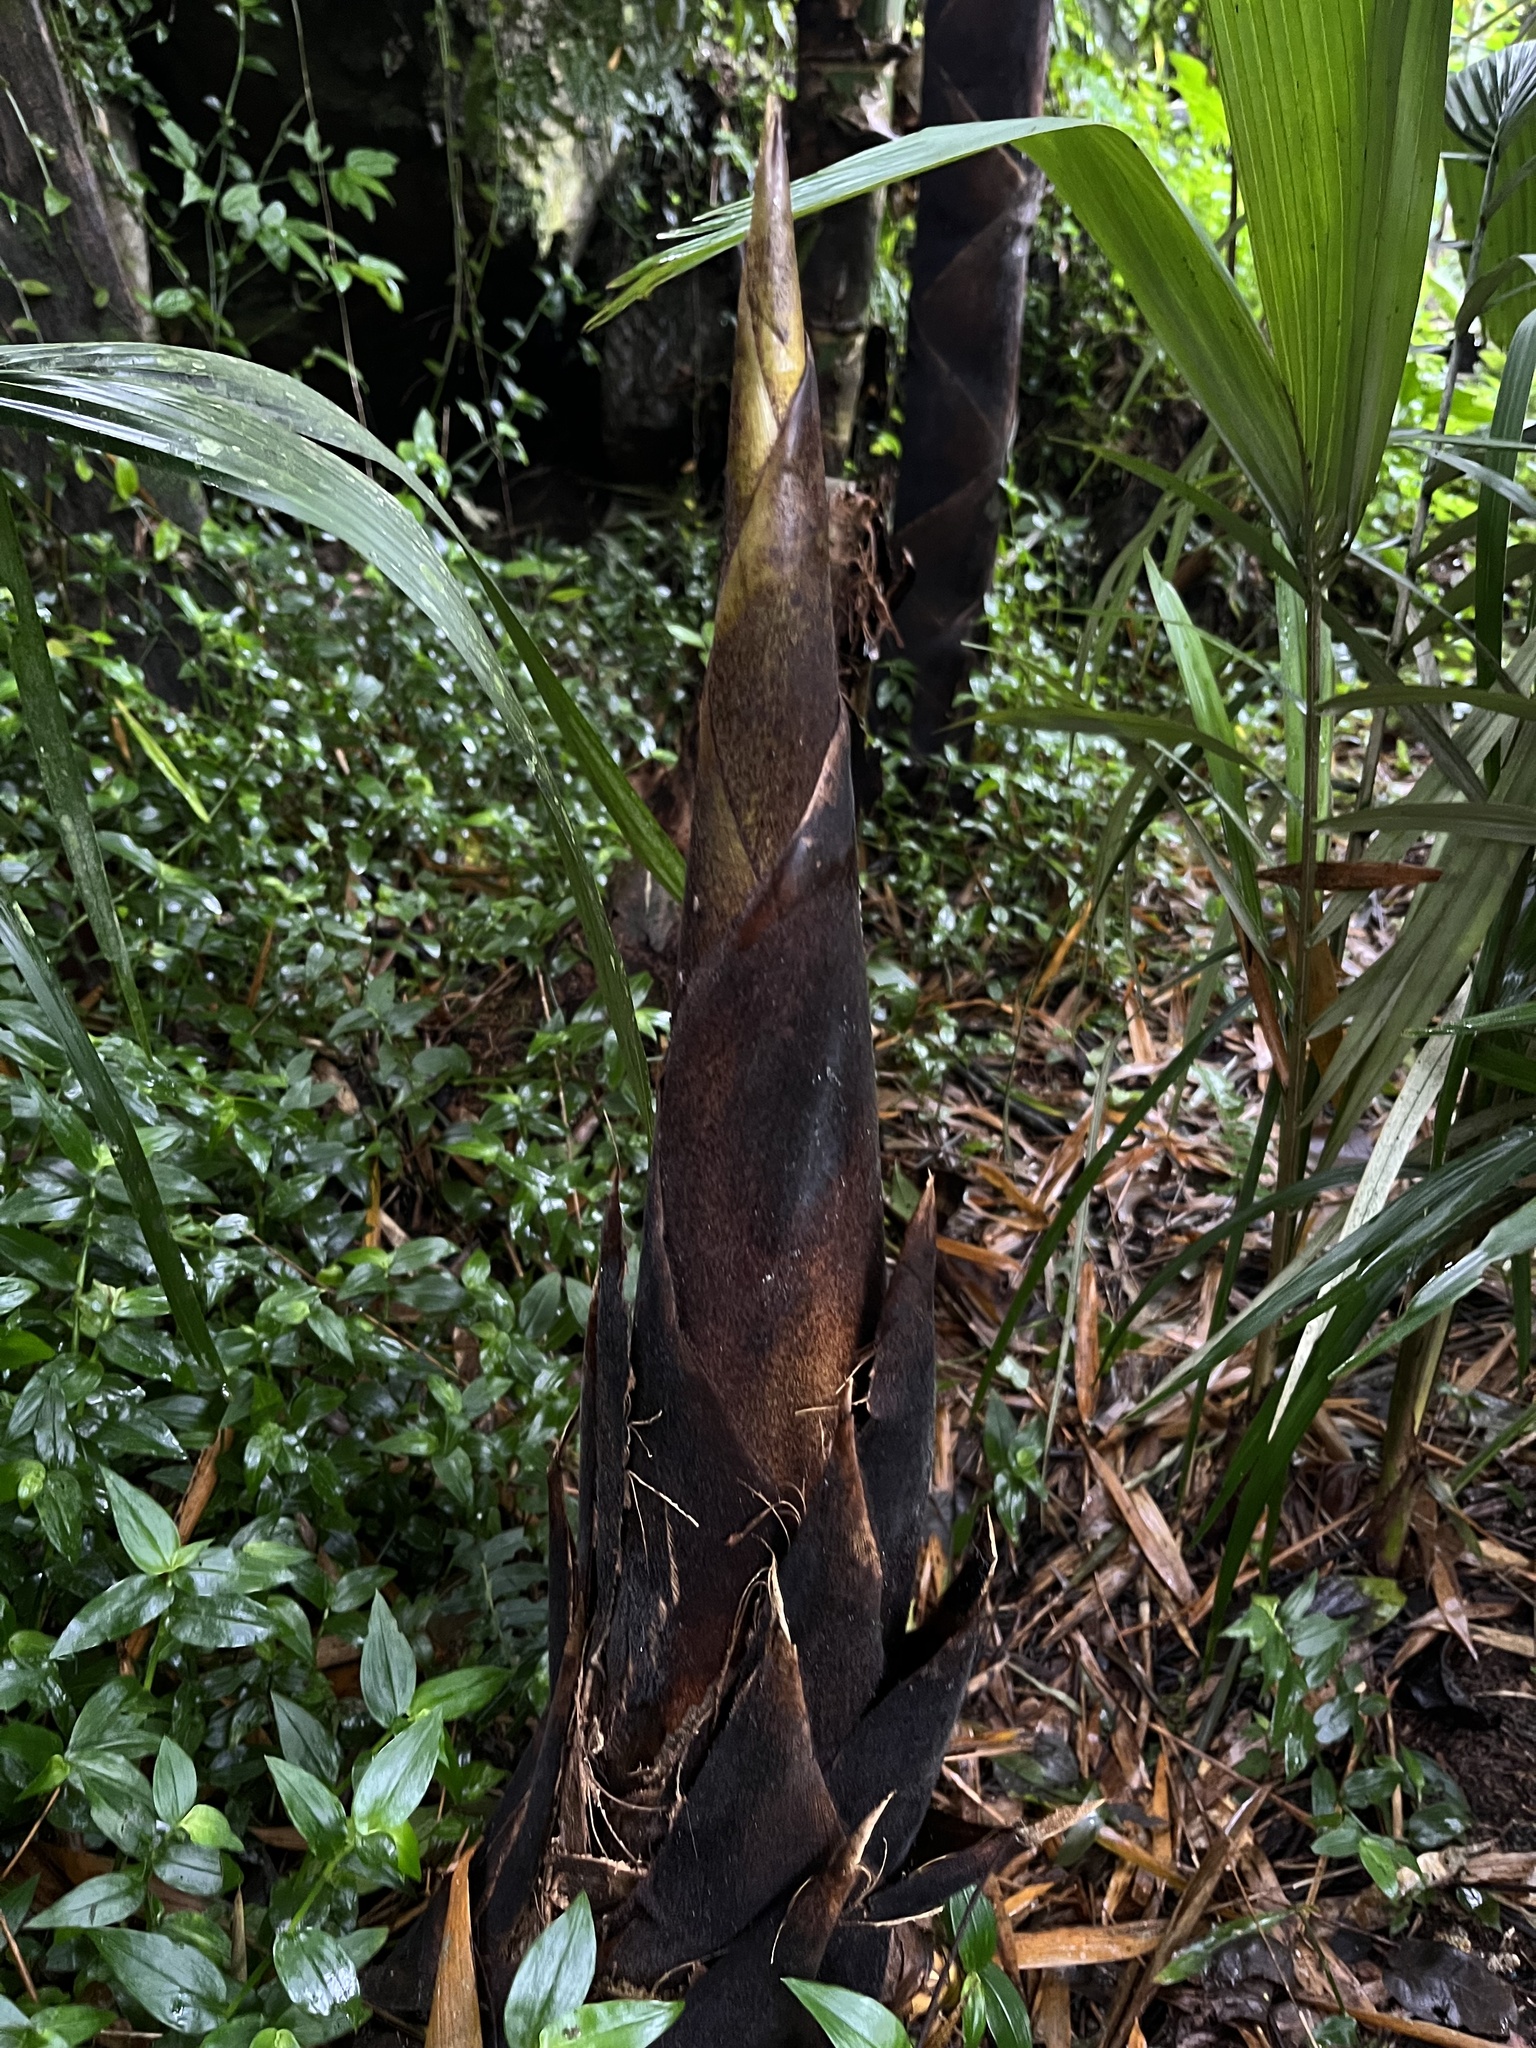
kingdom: Plantae
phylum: Tracheophyta
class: Liliopsida
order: Poales
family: Poaceae
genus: Guadua
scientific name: Guadua angustifolia
